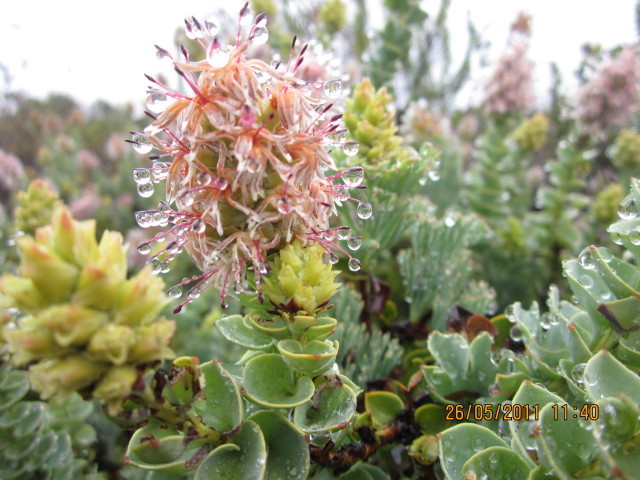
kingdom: Plantae
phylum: Tracheophyta
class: Magnoliopsida
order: Proteales
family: Proteaceae
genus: Paranomus
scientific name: Paranomus roodebergensis
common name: Honey-scented sceptre
